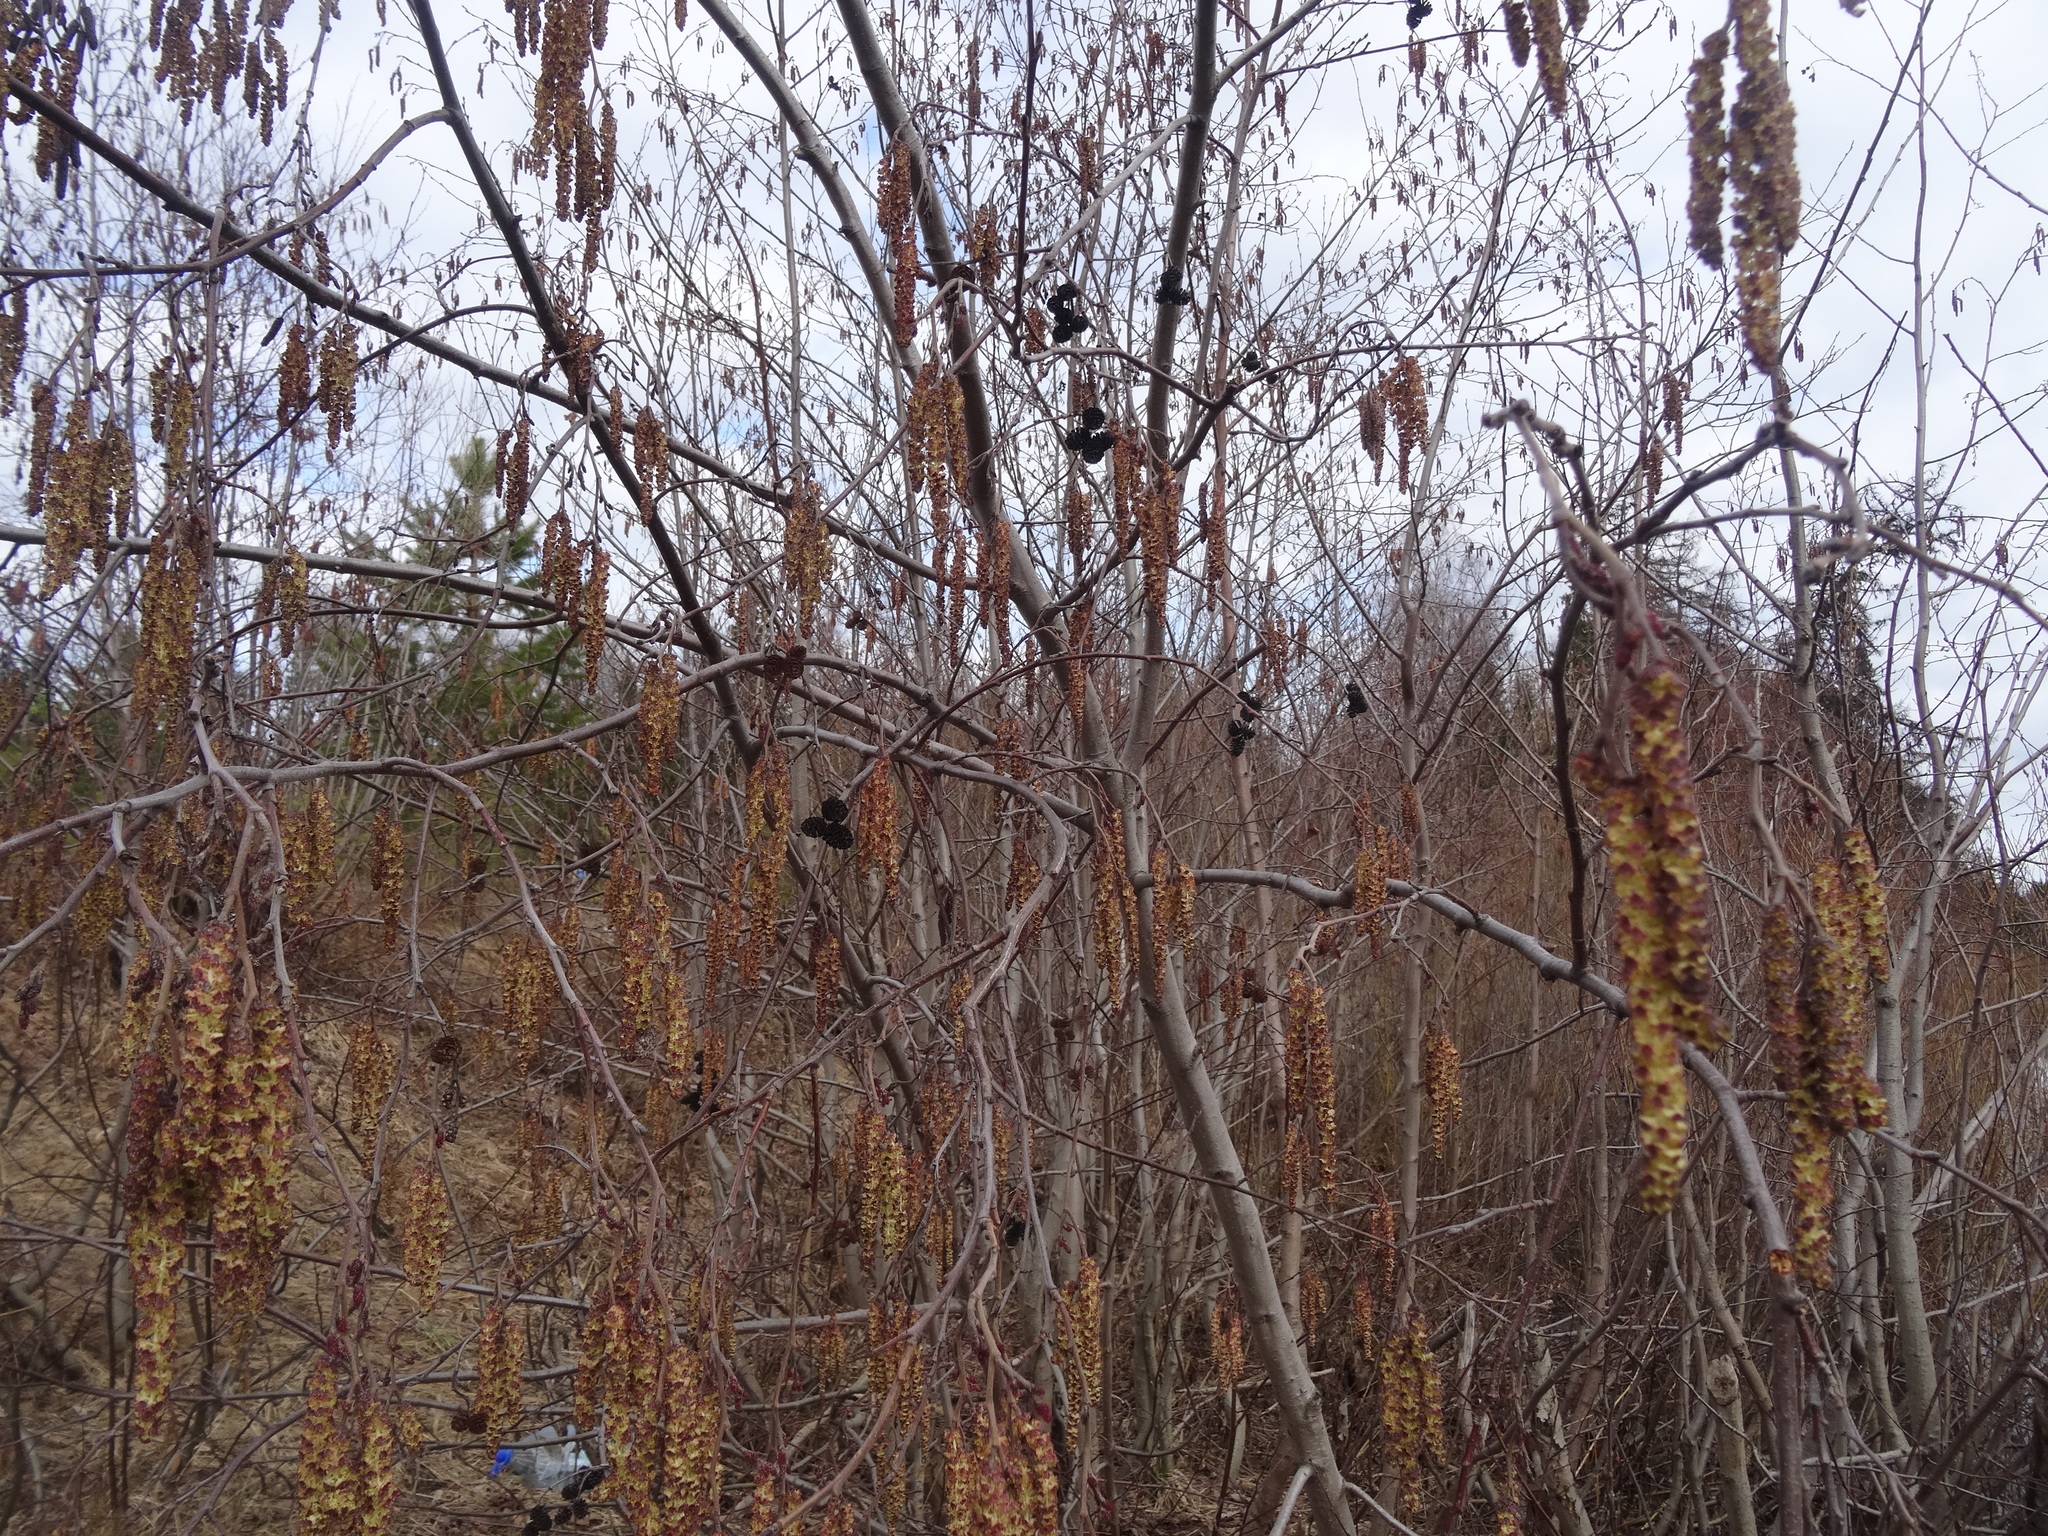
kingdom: Plantae
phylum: Tracheophyta
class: Magnoliopsida
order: Fagales
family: Betulaceae
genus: Alnus
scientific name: Alnus incana
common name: Grey alder
